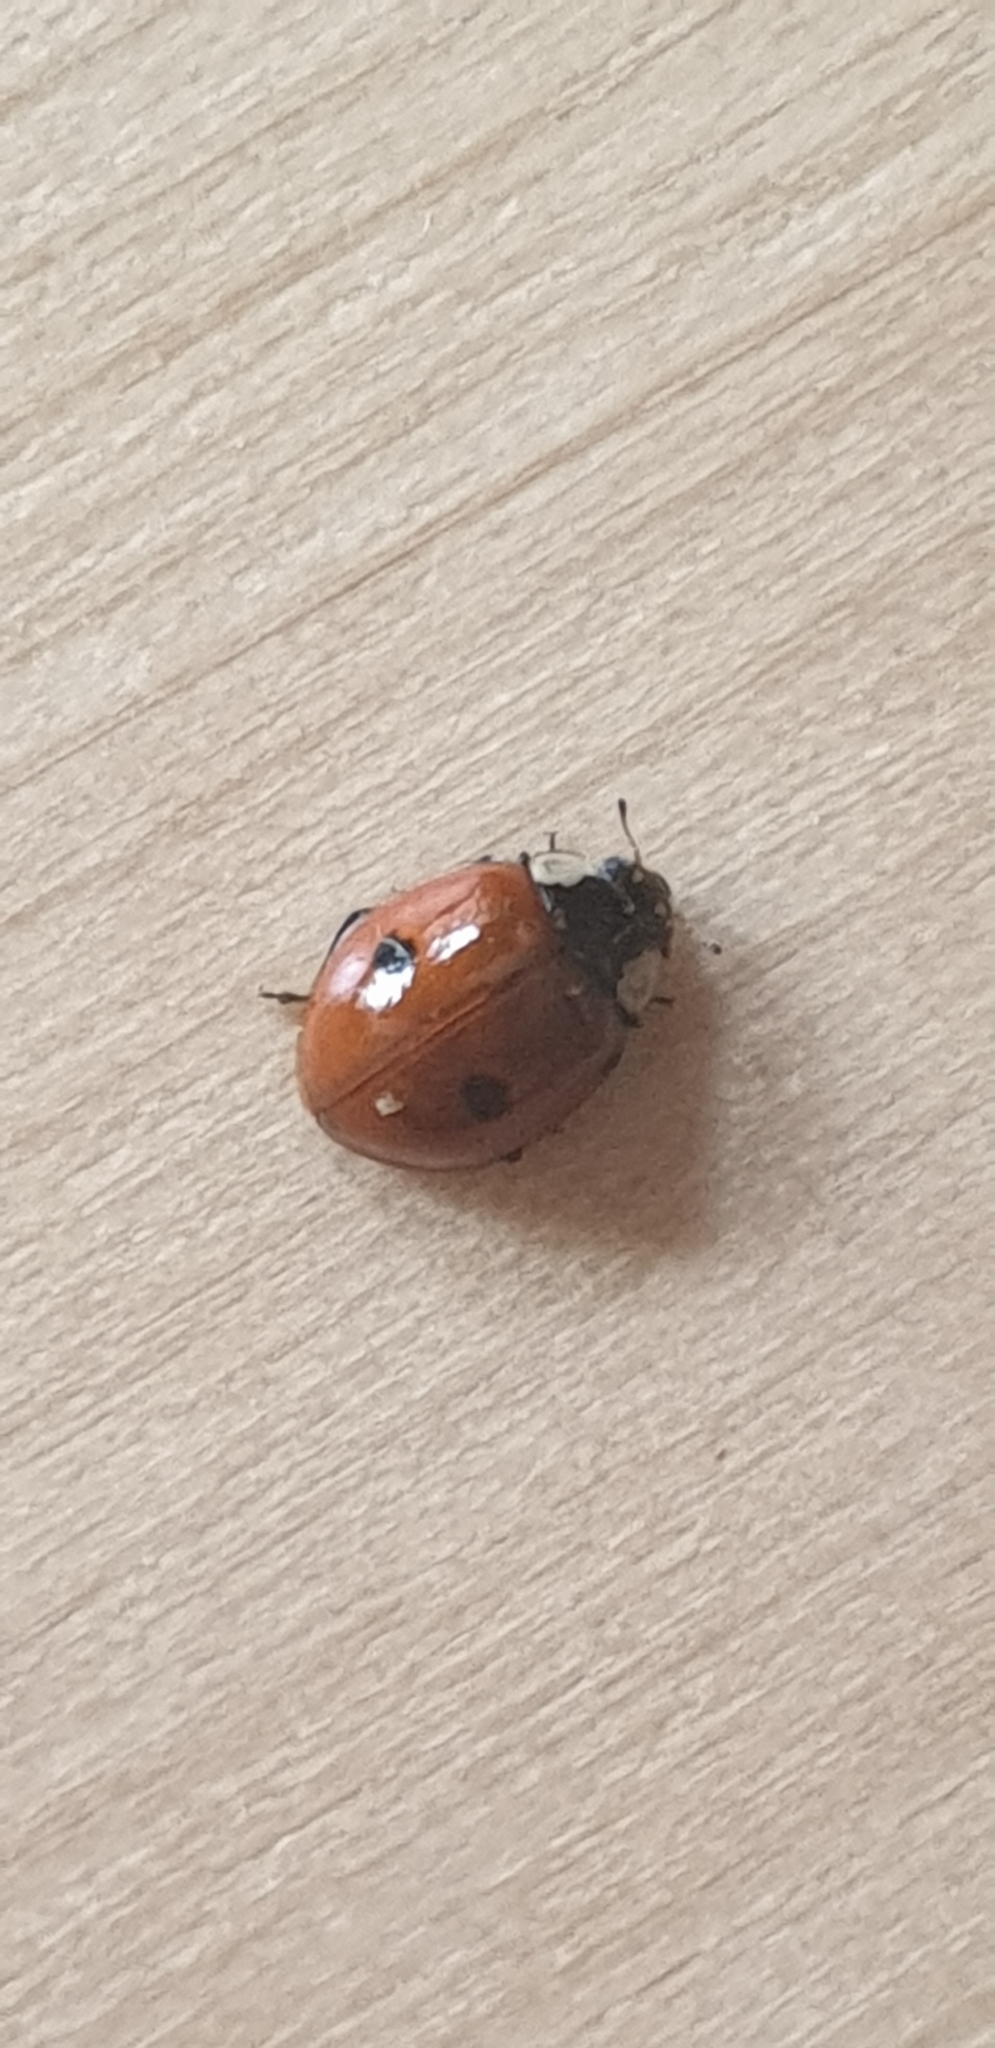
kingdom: Animalia
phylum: Arthropoda
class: Insecta
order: Coleoptera
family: Coccinellidae
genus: Adalia
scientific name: Adalia bipunctata
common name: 2-spot ladybird
